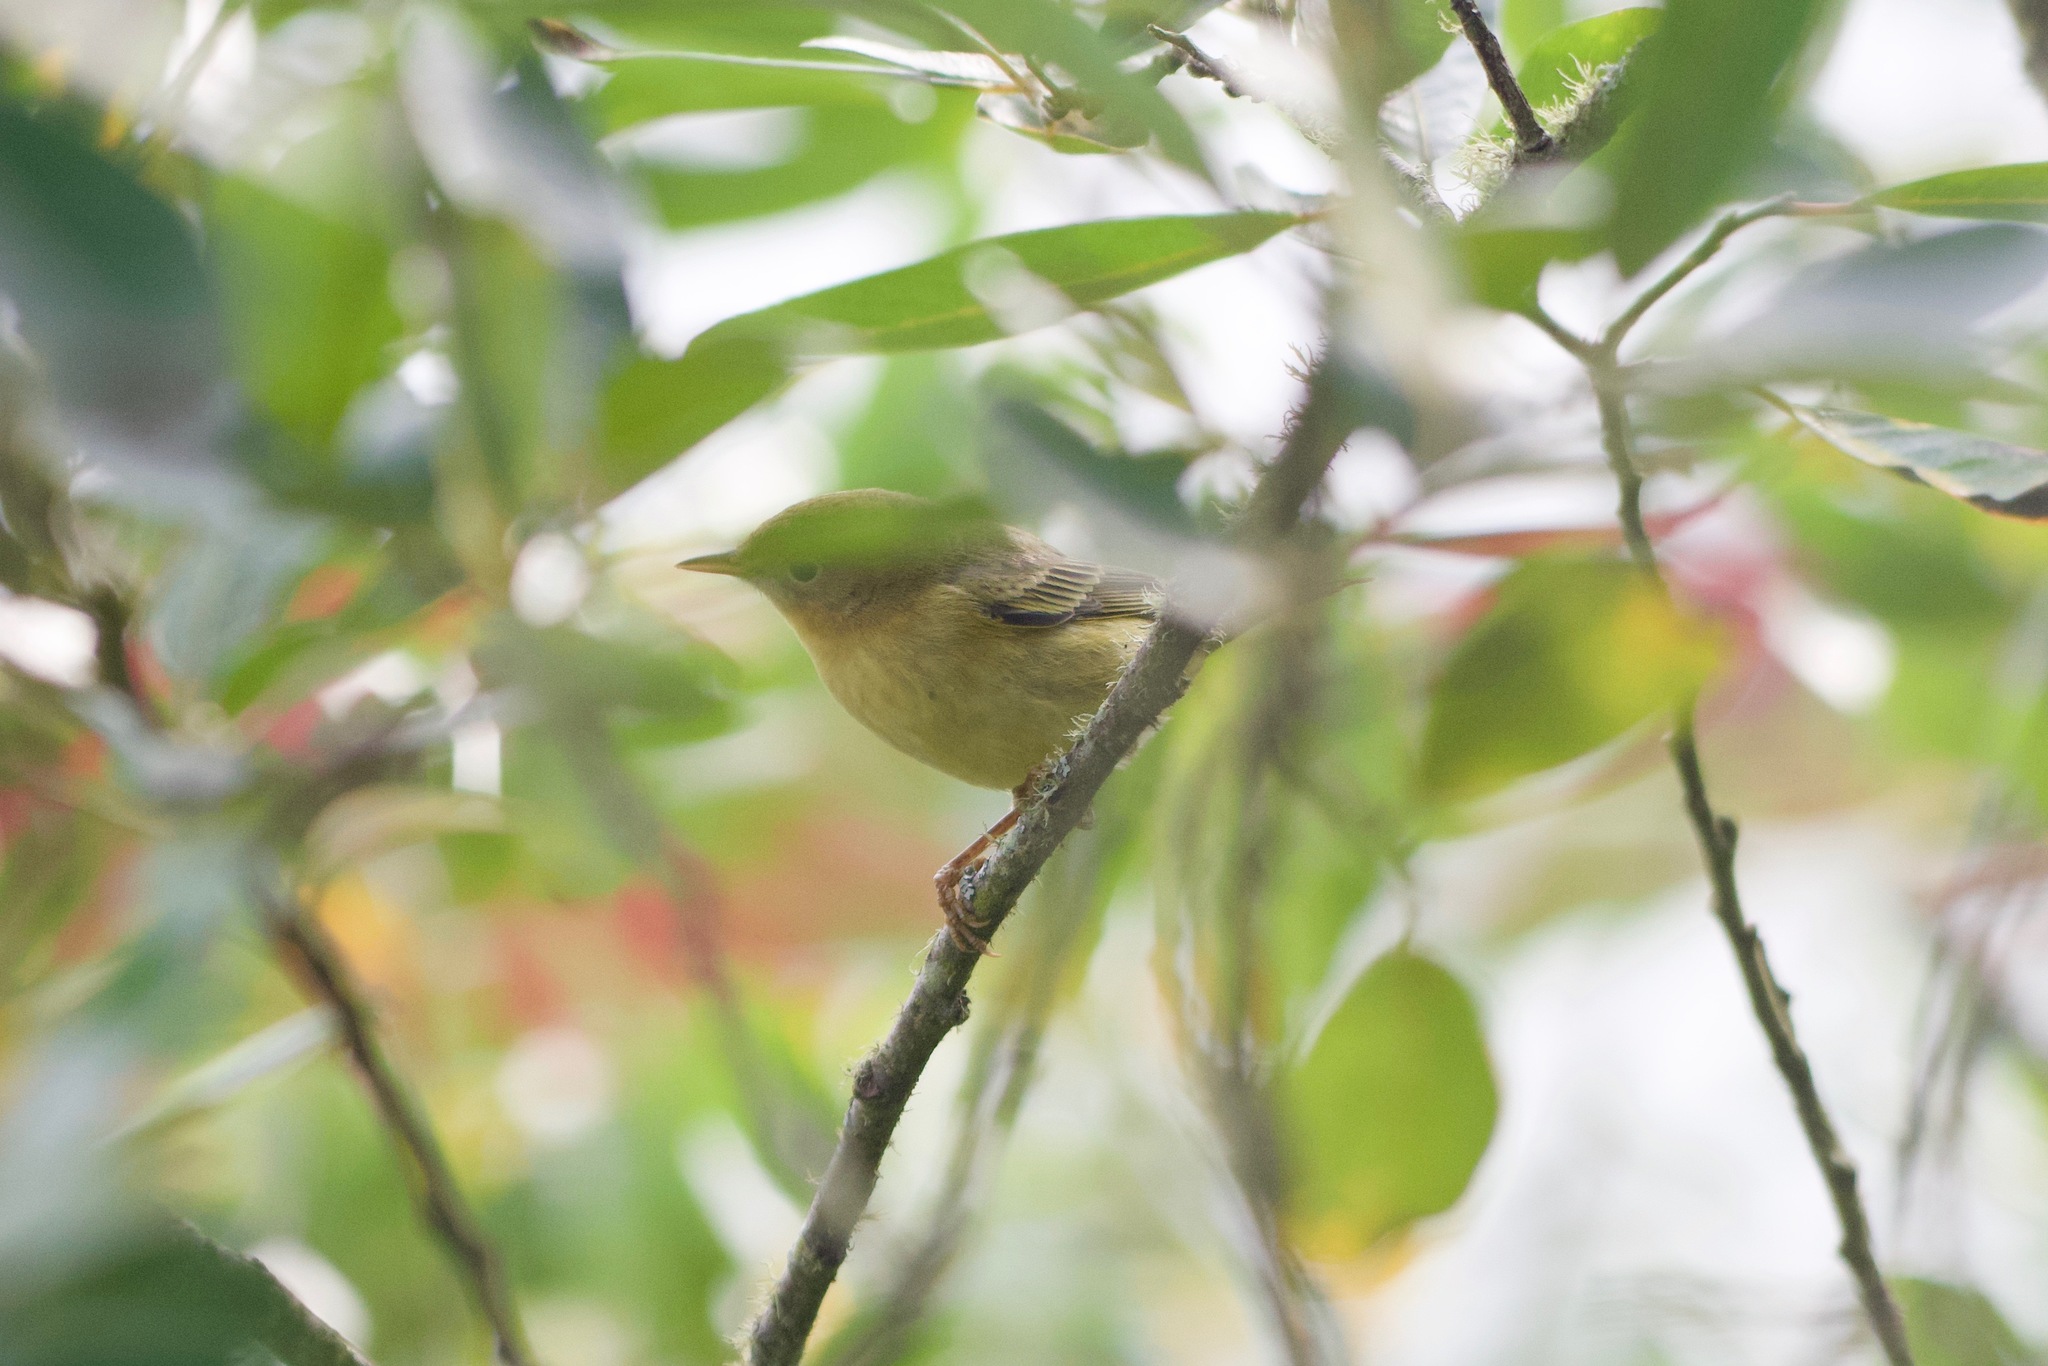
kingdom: Animalia
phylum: Chordata
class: Aves
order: Passeriformes
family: Parulidae
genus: Setophaga
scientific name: Setophaga petechia
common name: Yellow warbler
